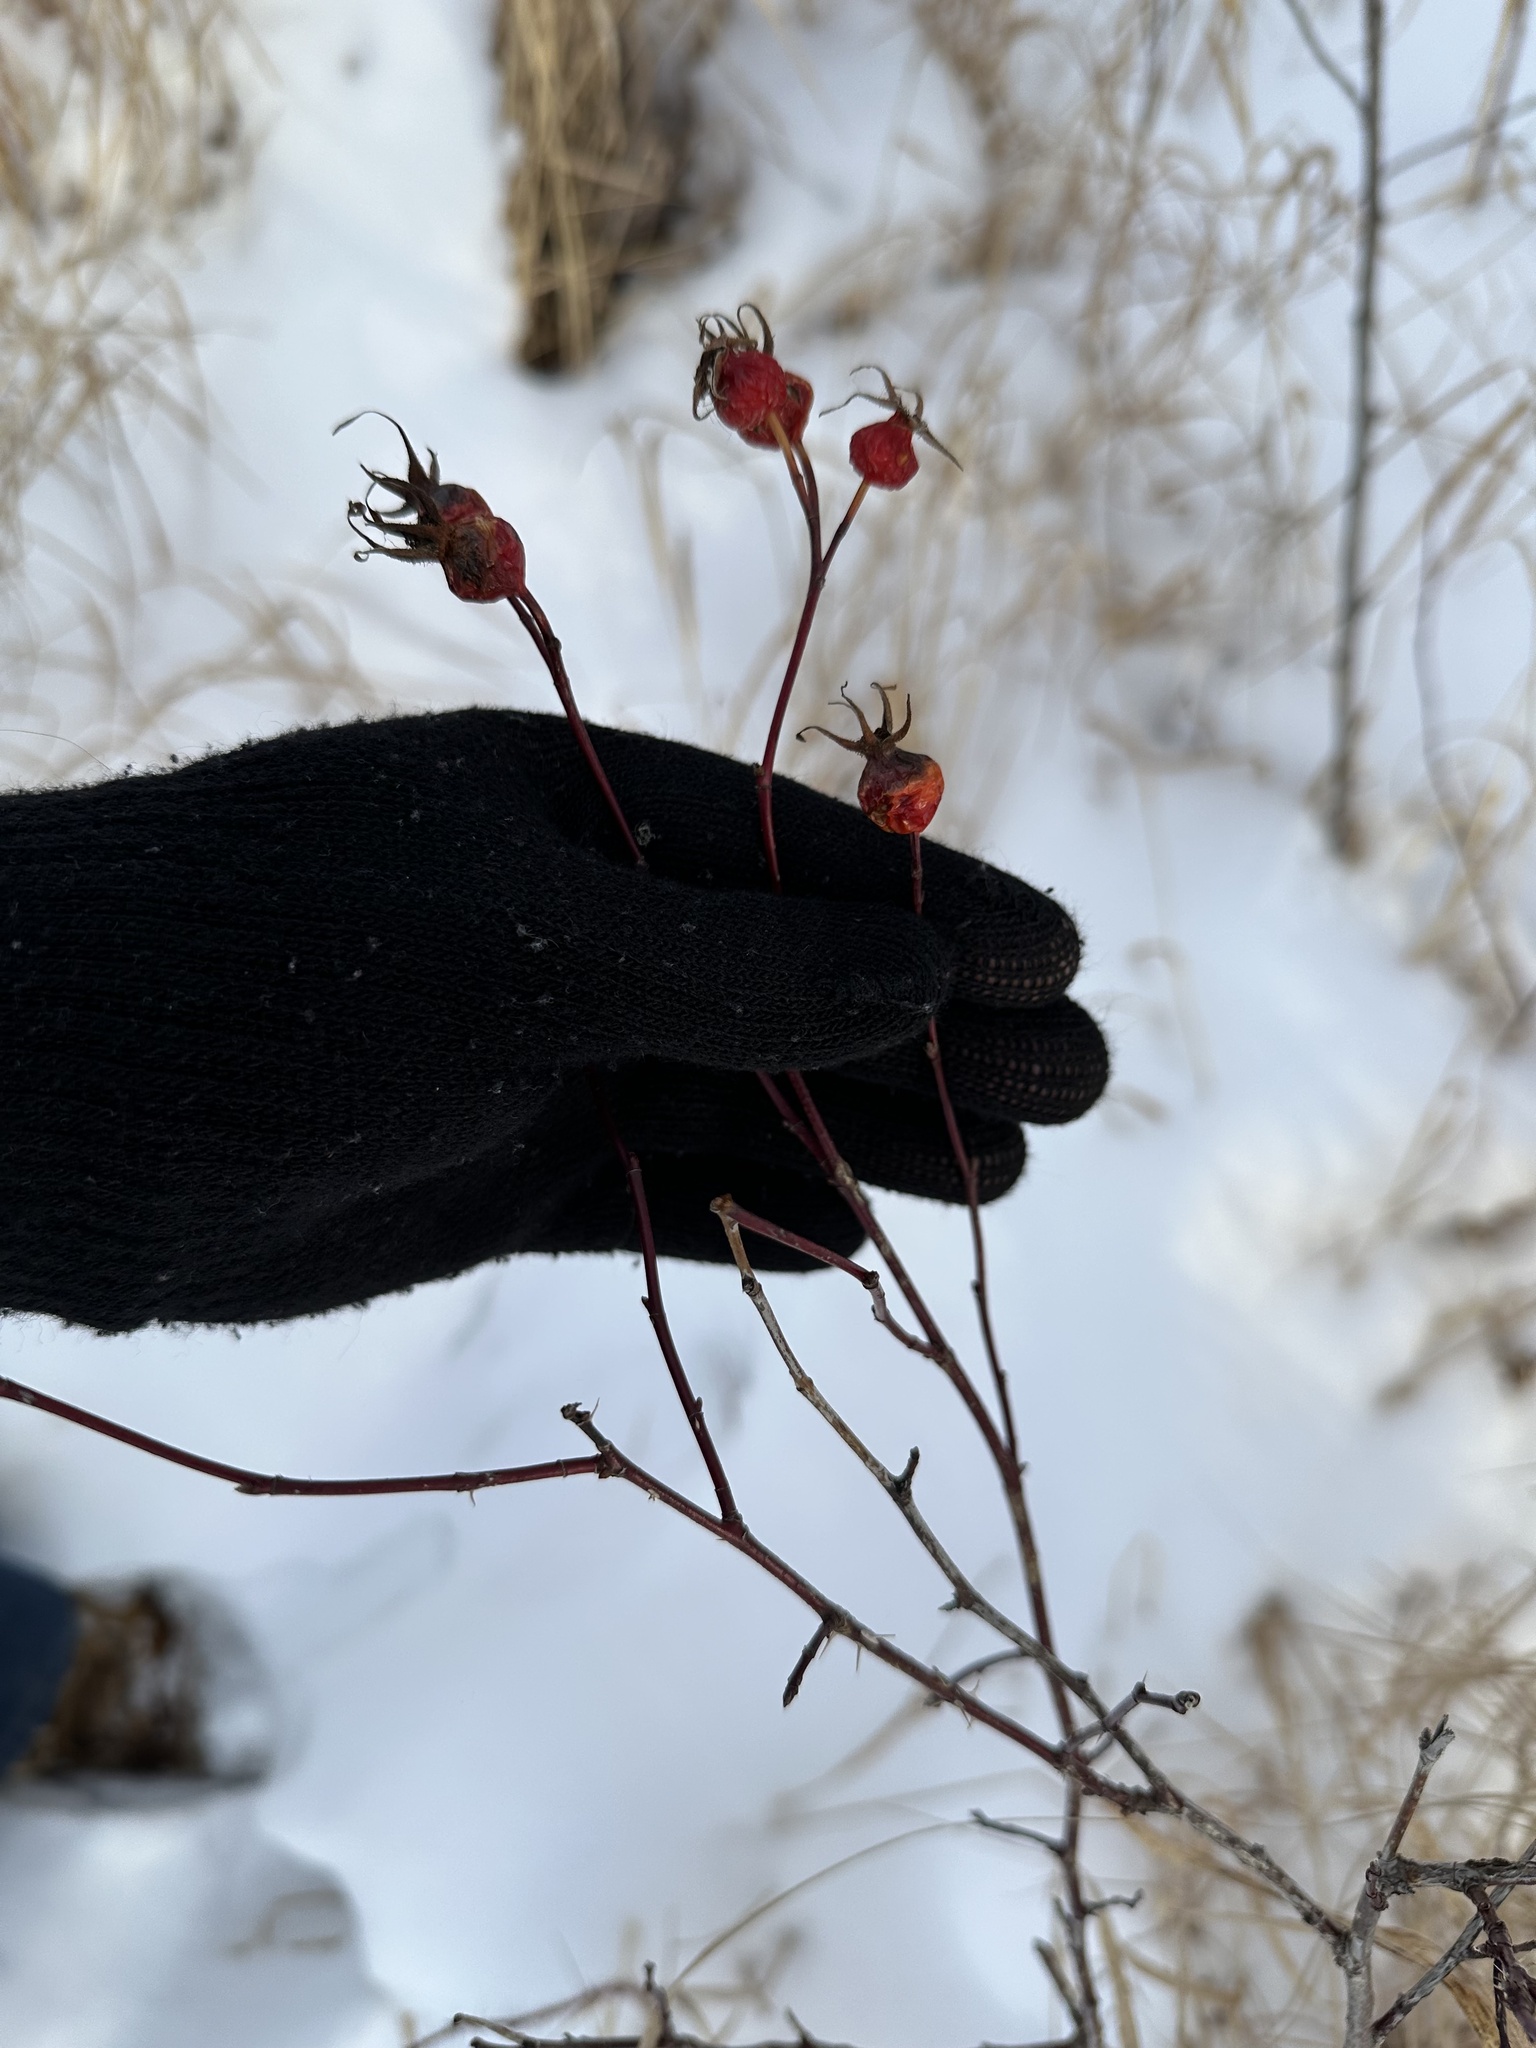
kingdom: Plantae
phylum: Tracheophyta
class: Magnoliopsida
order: Rosales
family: Rosaceae
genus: Rosa
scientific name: Rosa woodsii
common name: Woods's rose
